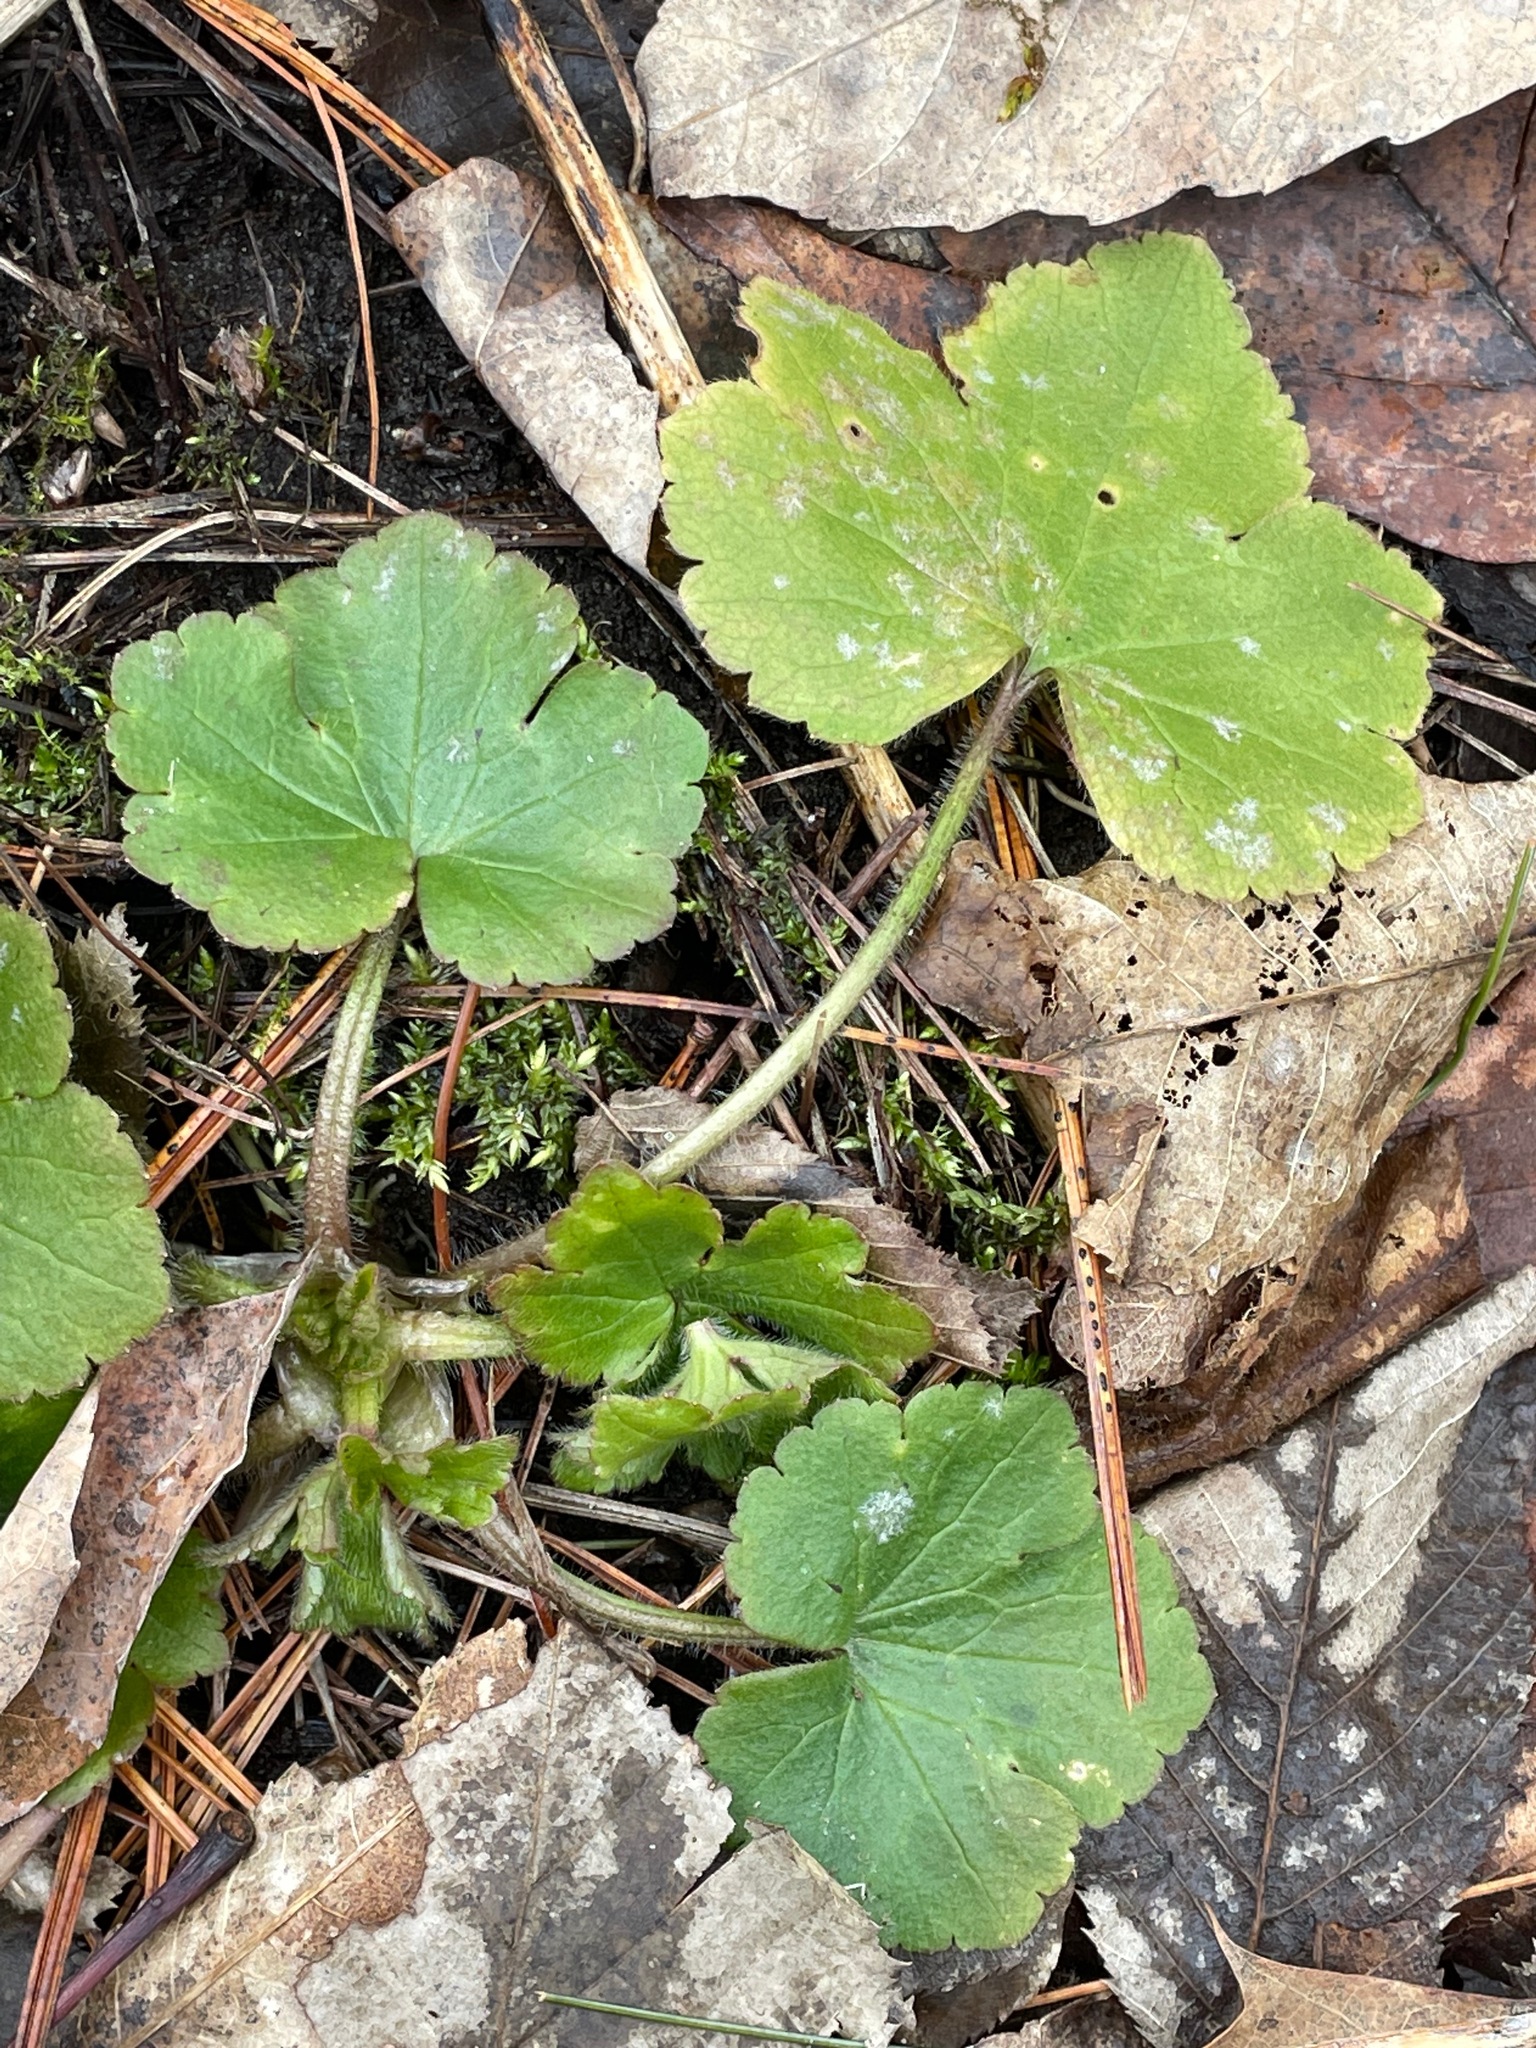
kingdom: Plantae
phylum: Tracheophyta
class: Magnoliopsida
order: Ranunculales
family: Ranunculaceae
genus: Ranunculus
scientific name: Ranunculus recurvatus
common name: Blisterwort
